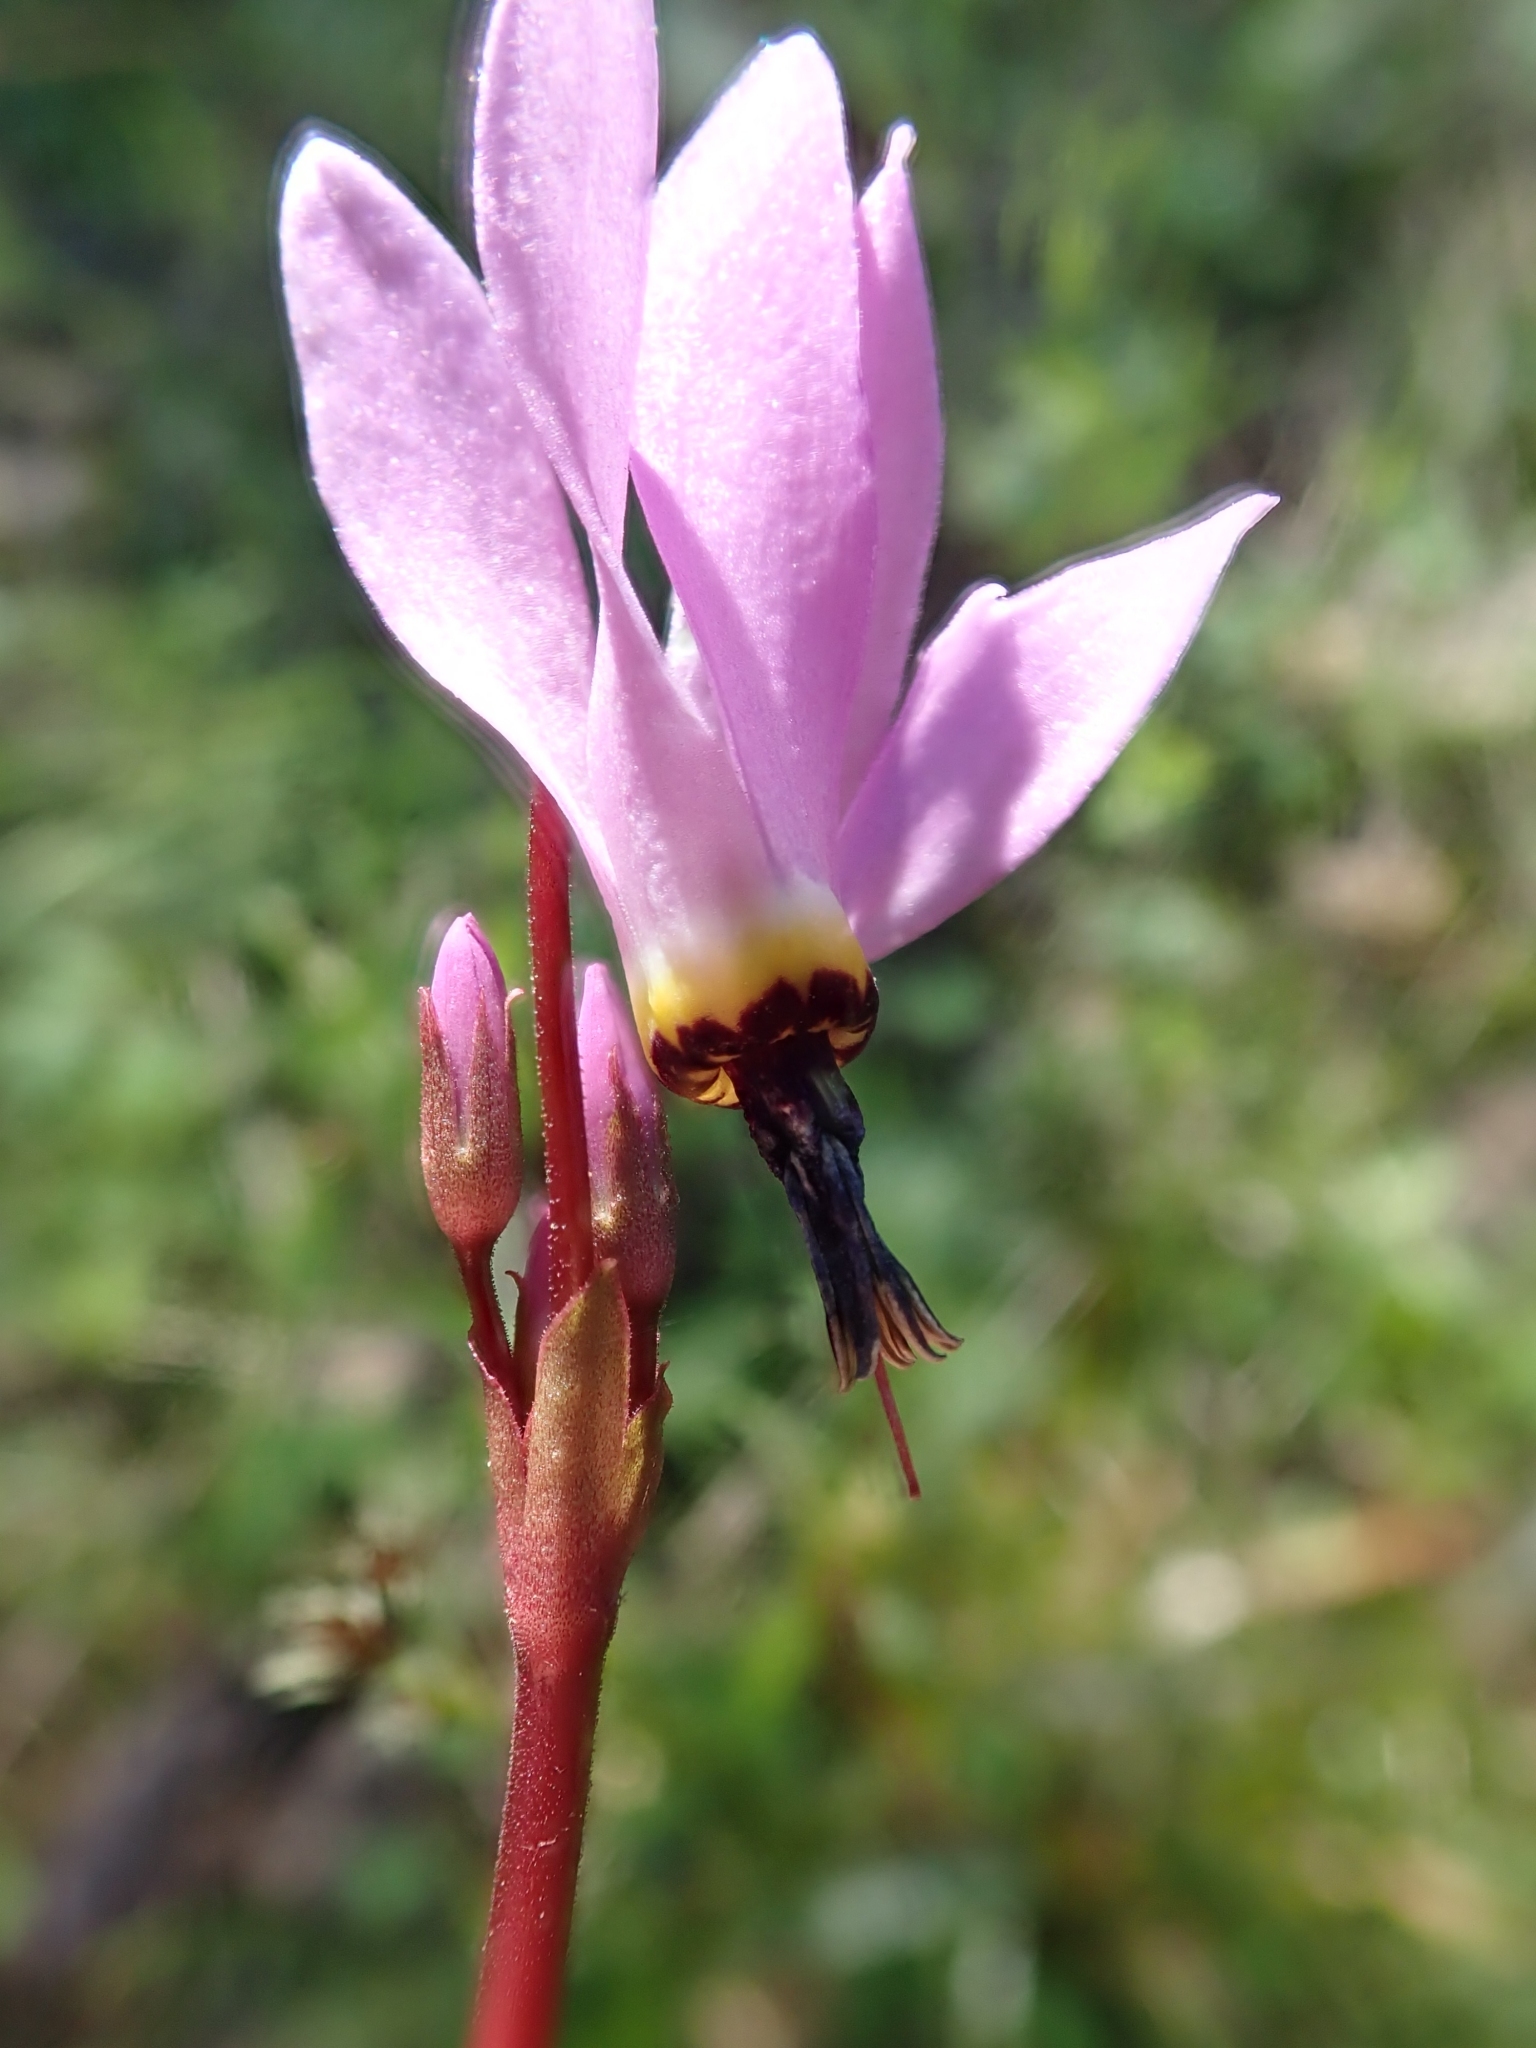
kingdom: Plantae
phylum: Tracheophyta
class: Magnoliopsida
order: Ericales
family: Primulaceae
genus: Dodecatheon
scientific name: Dodecatheon hendersonii
